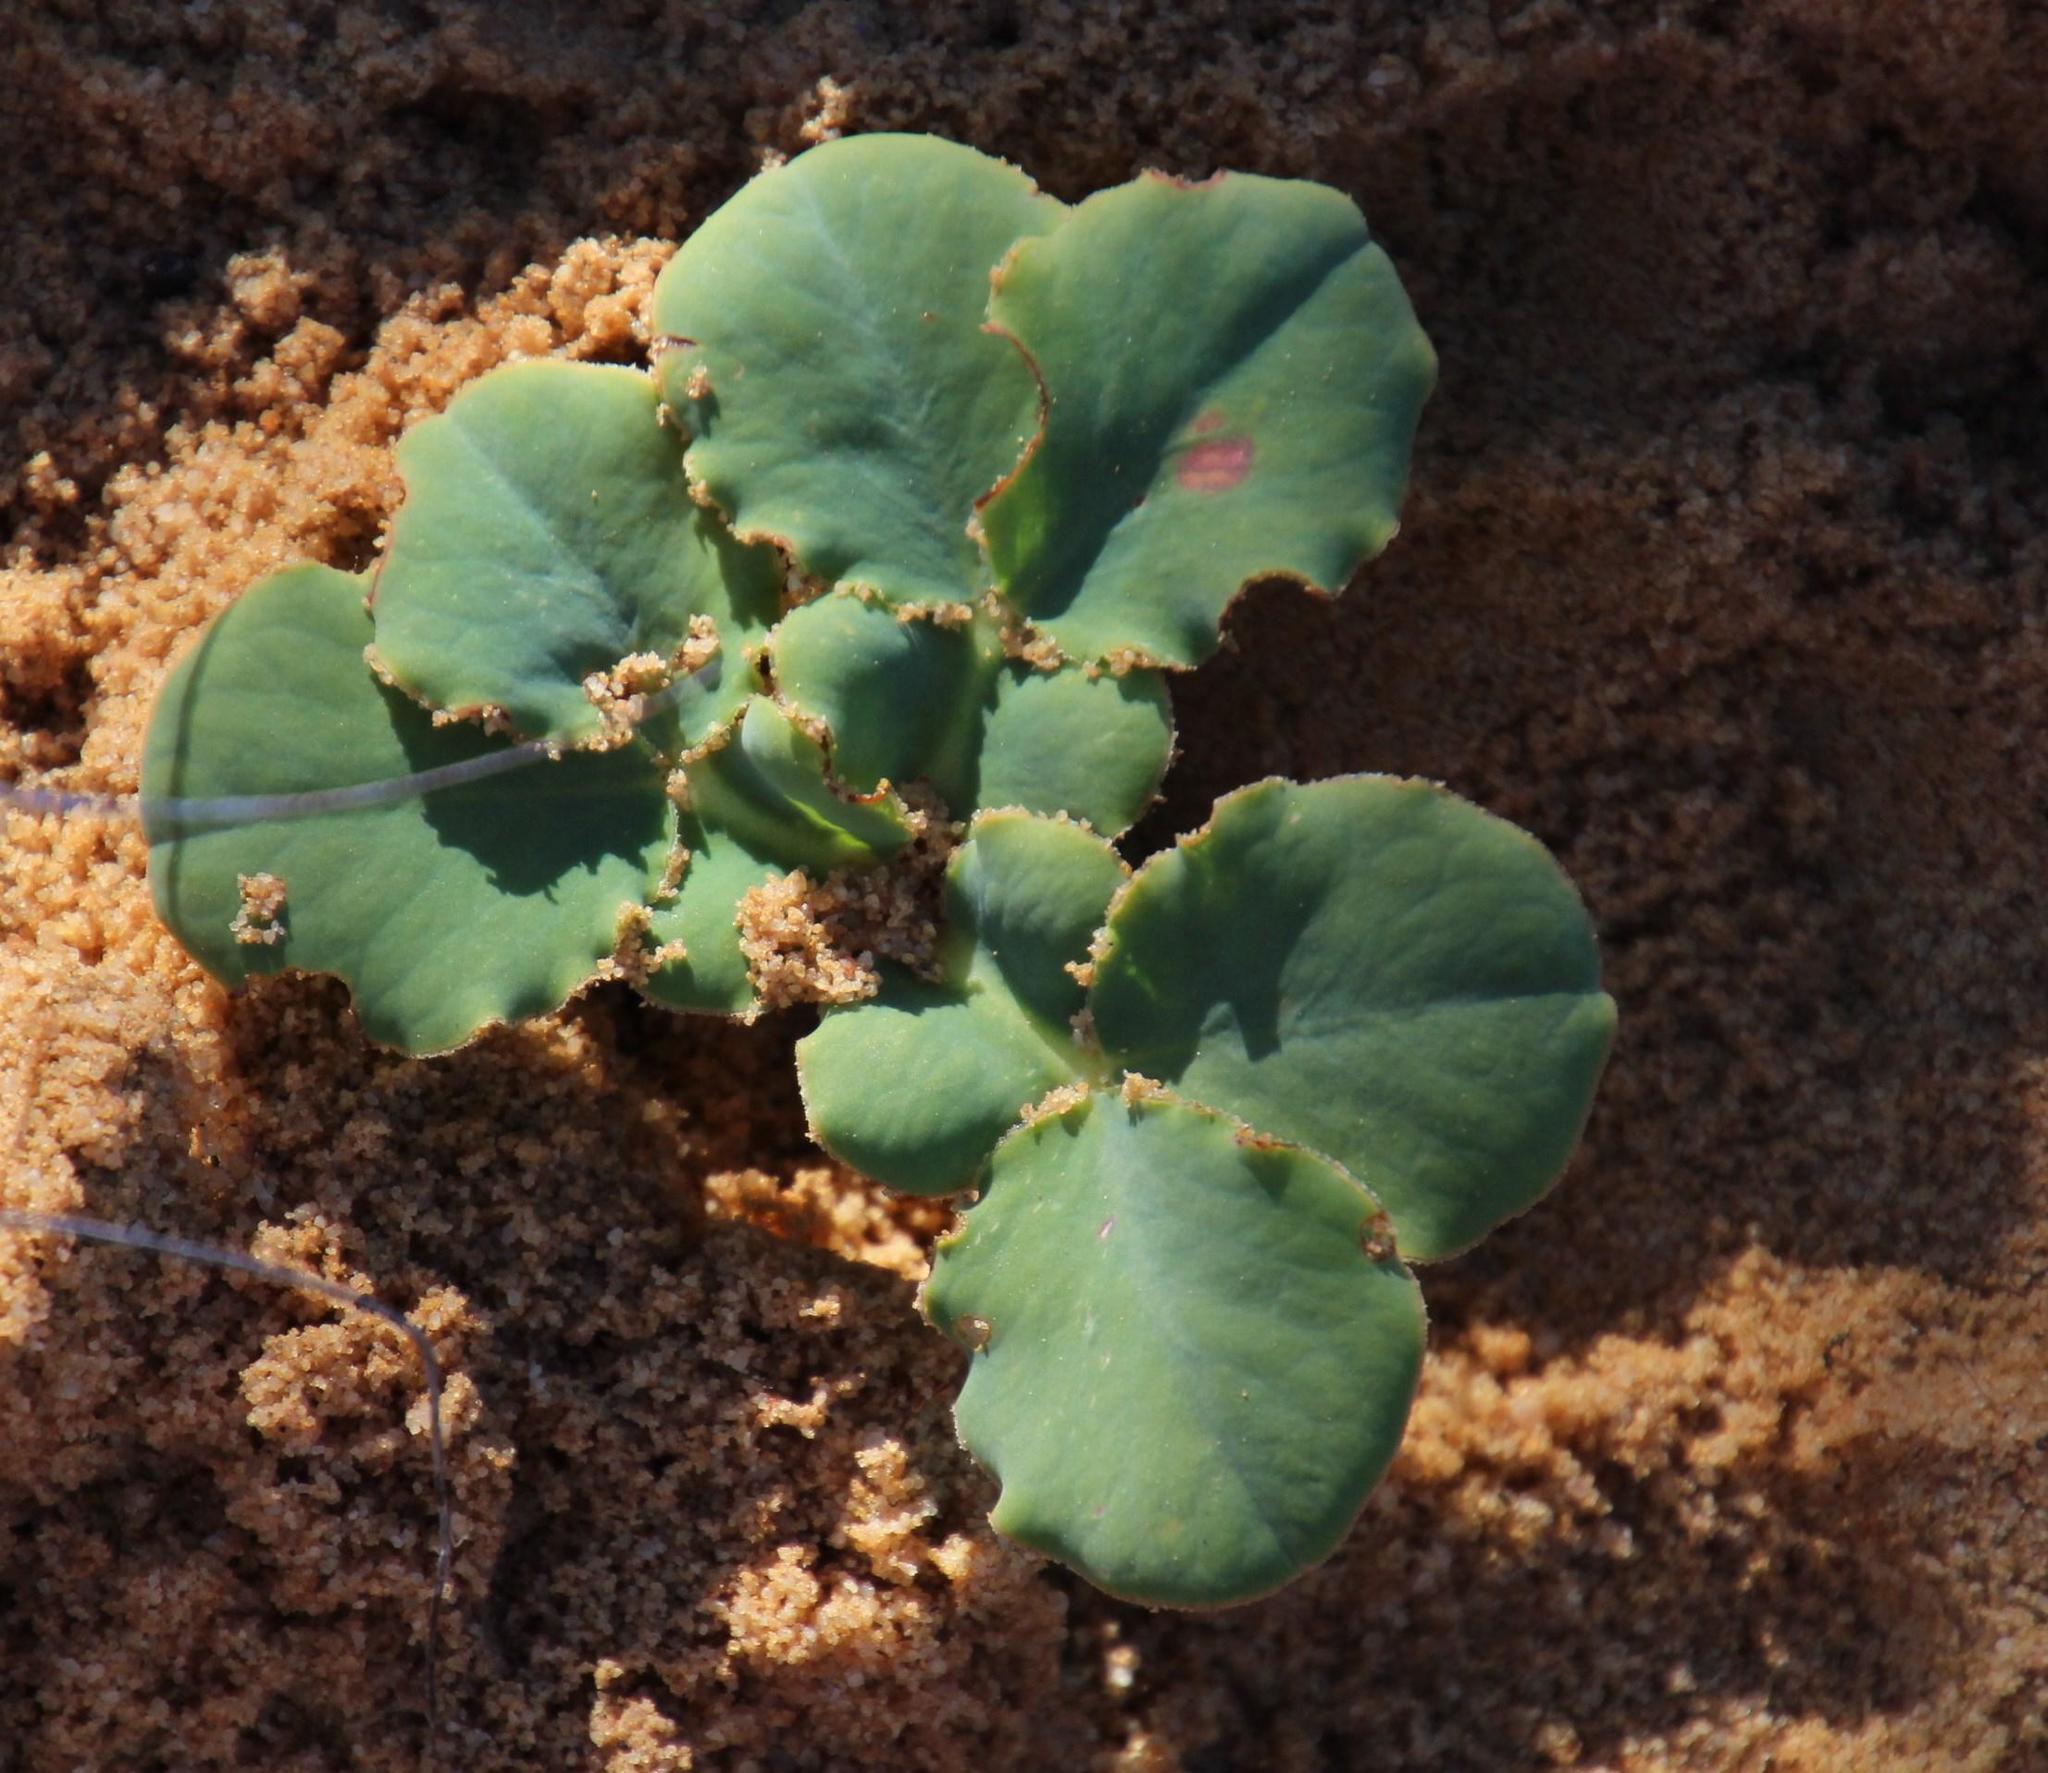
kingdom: Plantae
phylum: Tracheophyta
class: Magnoliopsida
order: Oxalidales
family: Oxalidaceae
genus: Oxalis
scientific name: Oxalis flava
